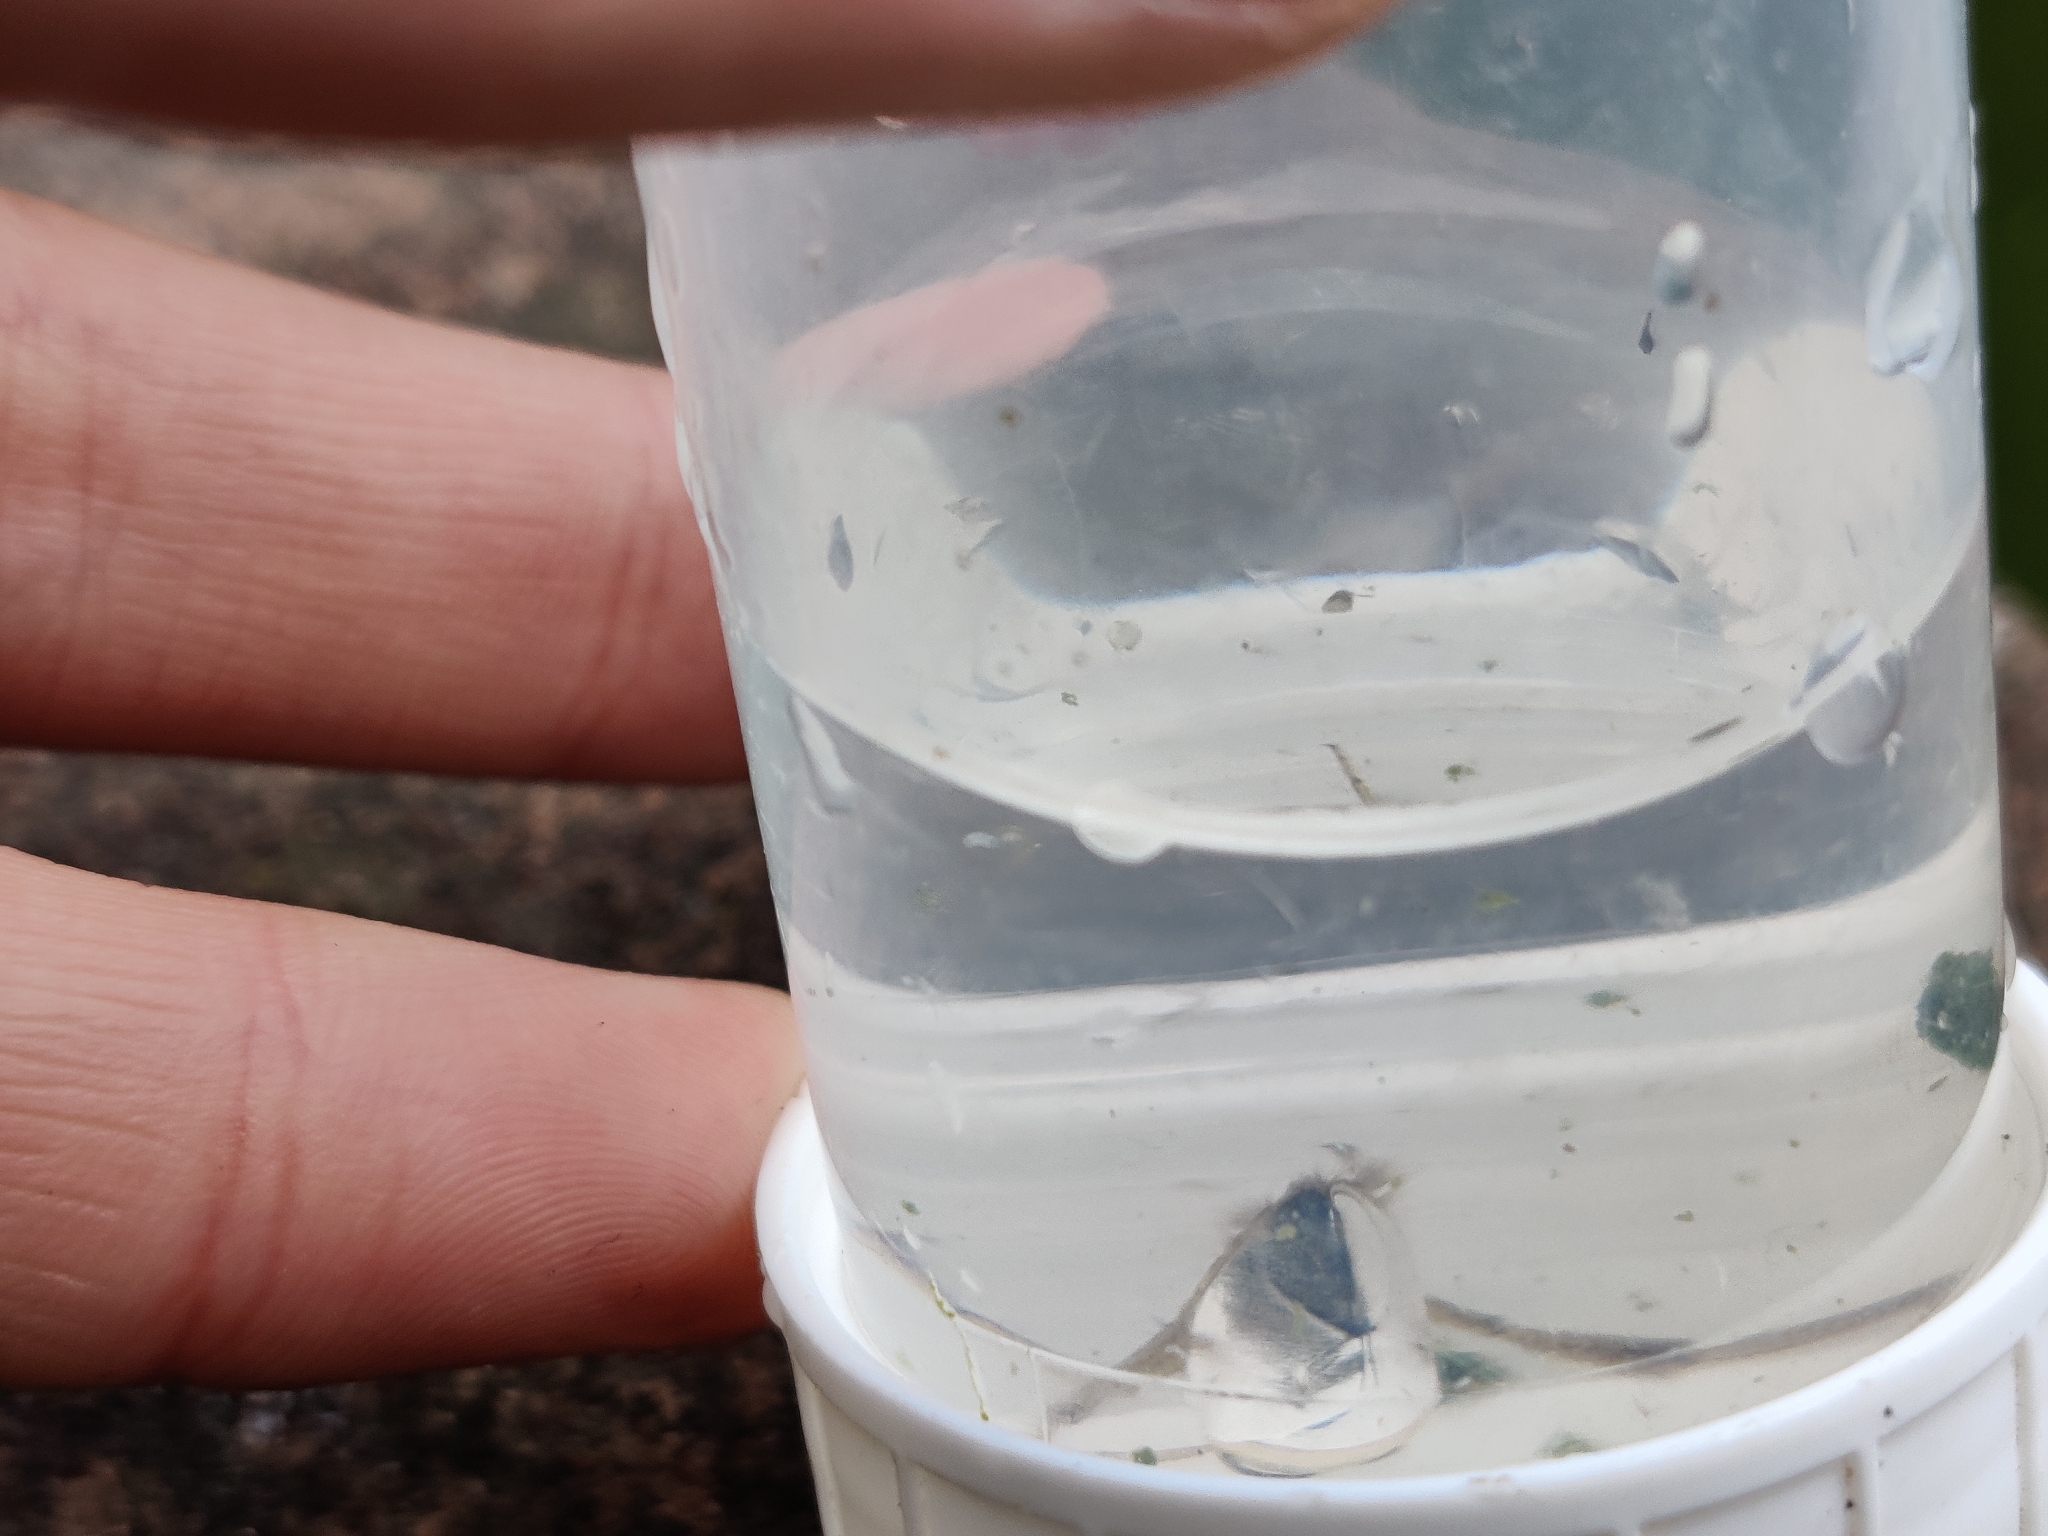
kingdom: Animalia
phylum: Arthropoda
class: Insecta
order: Hemiptera
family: Notonectidae
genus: Notonecta
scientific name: Notonecta
